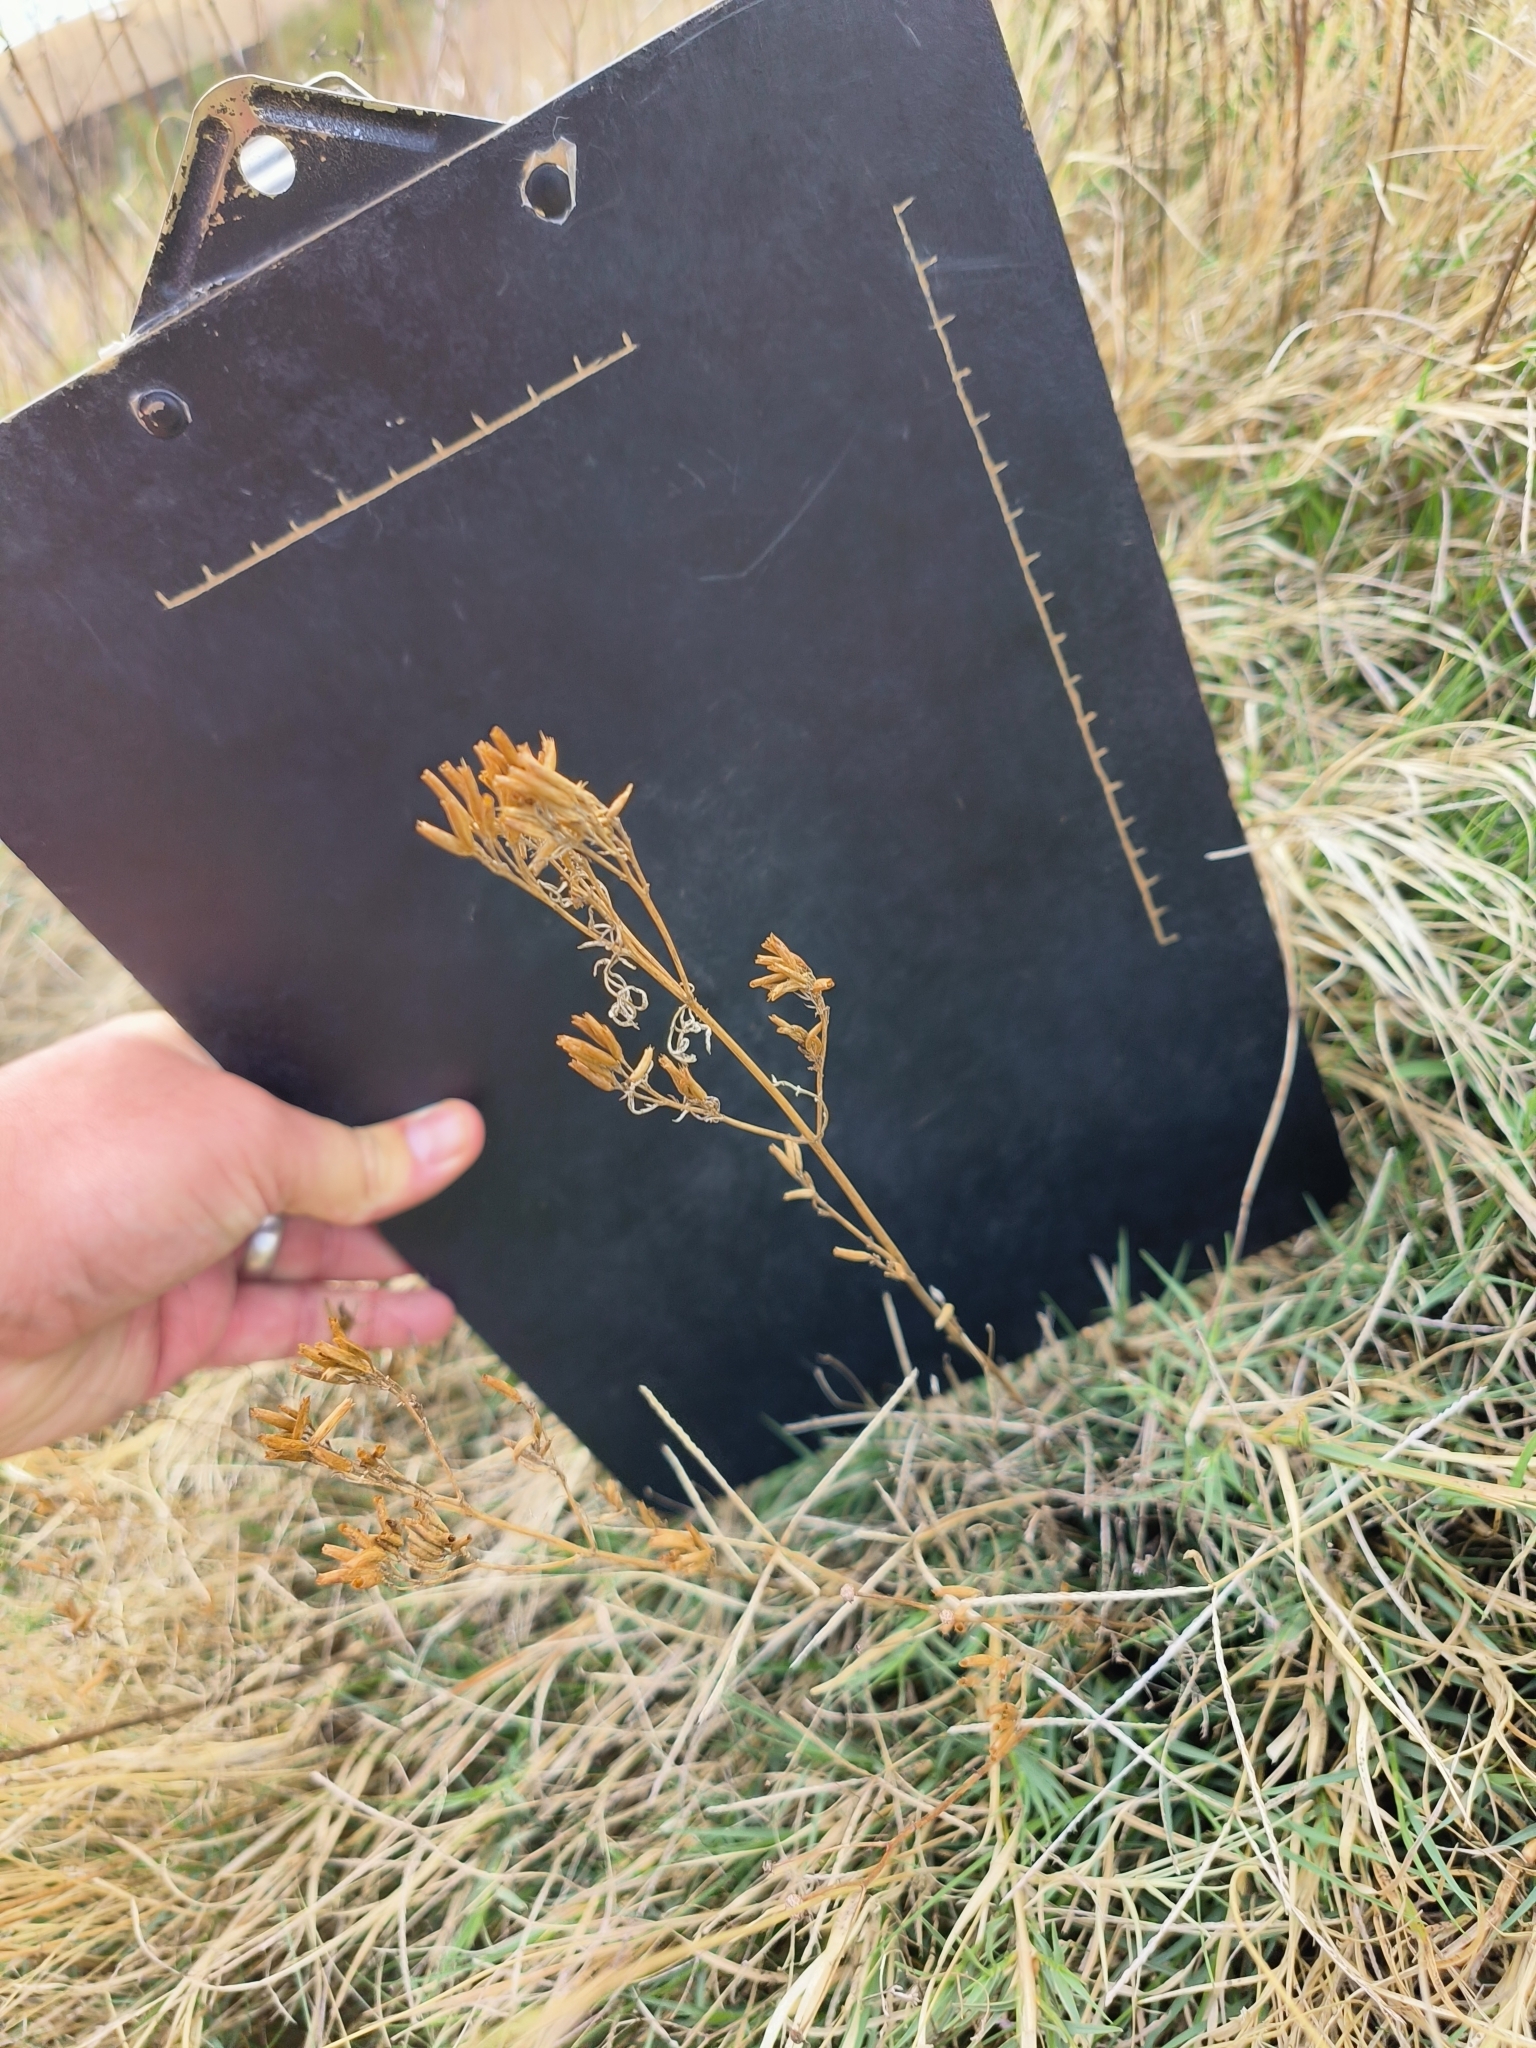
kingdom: Plantae
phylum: Tracheophyta
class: Magnoliopsida
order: Asterales
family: Asteraceae
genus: Tagetes
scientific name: Tagetes minuta
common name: Muster john henry
